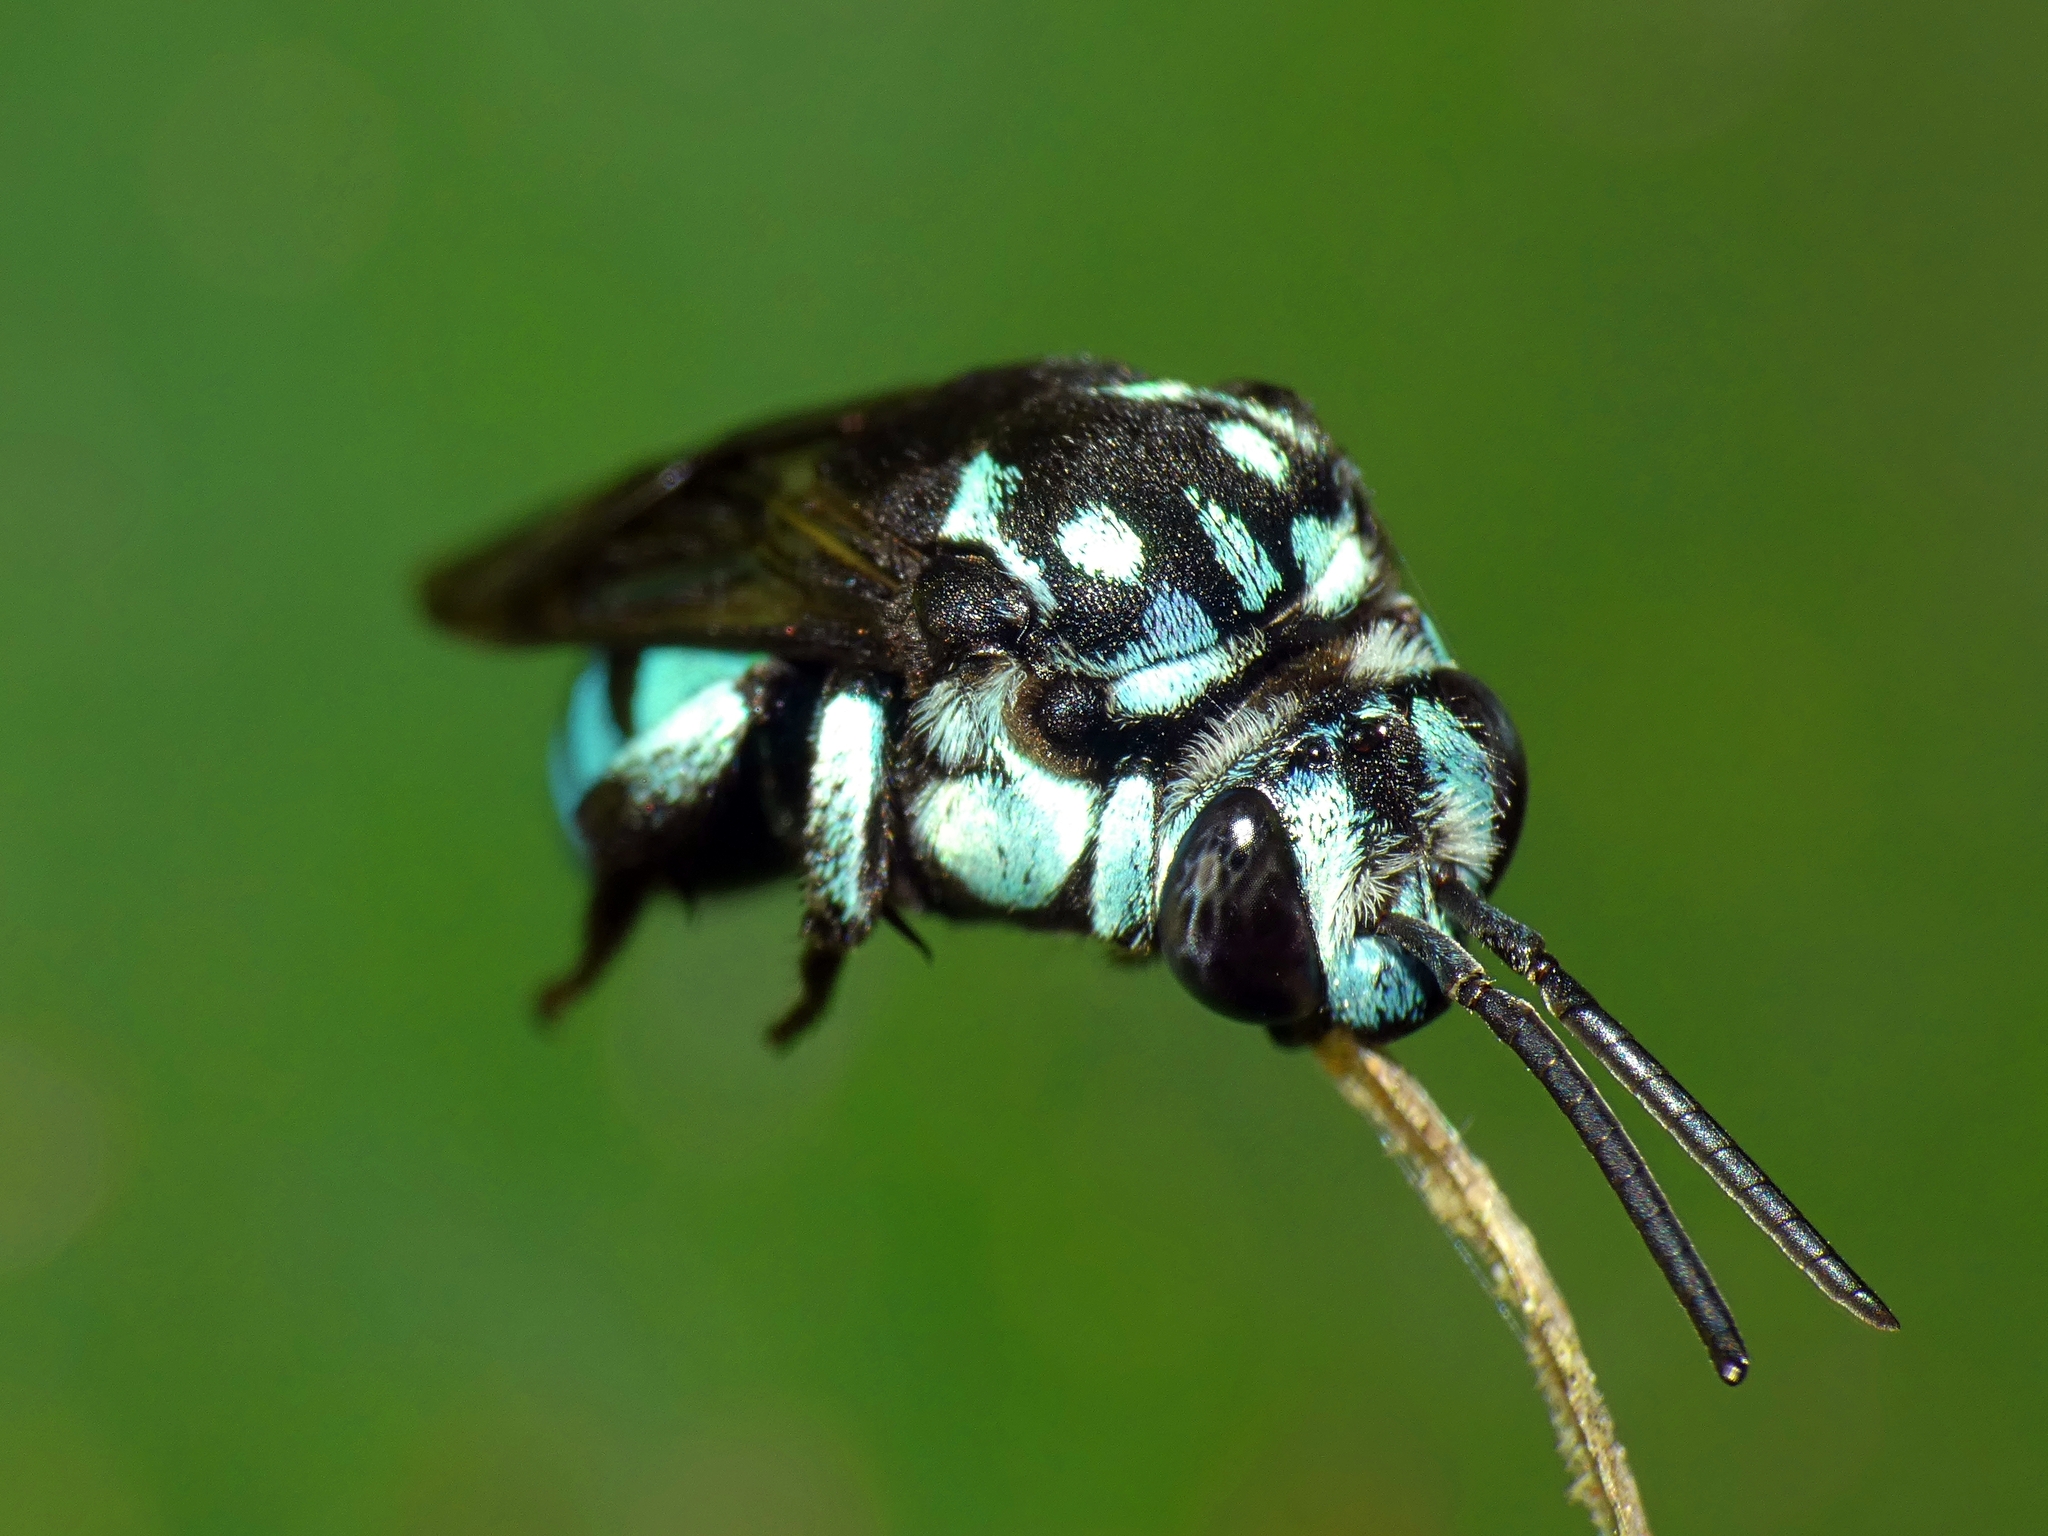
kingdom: Animalia
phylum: Arthropoda
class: Insecta
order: Hymenoptera
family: Apidae
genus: Thyreus
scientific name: Thyreus nitidulus
